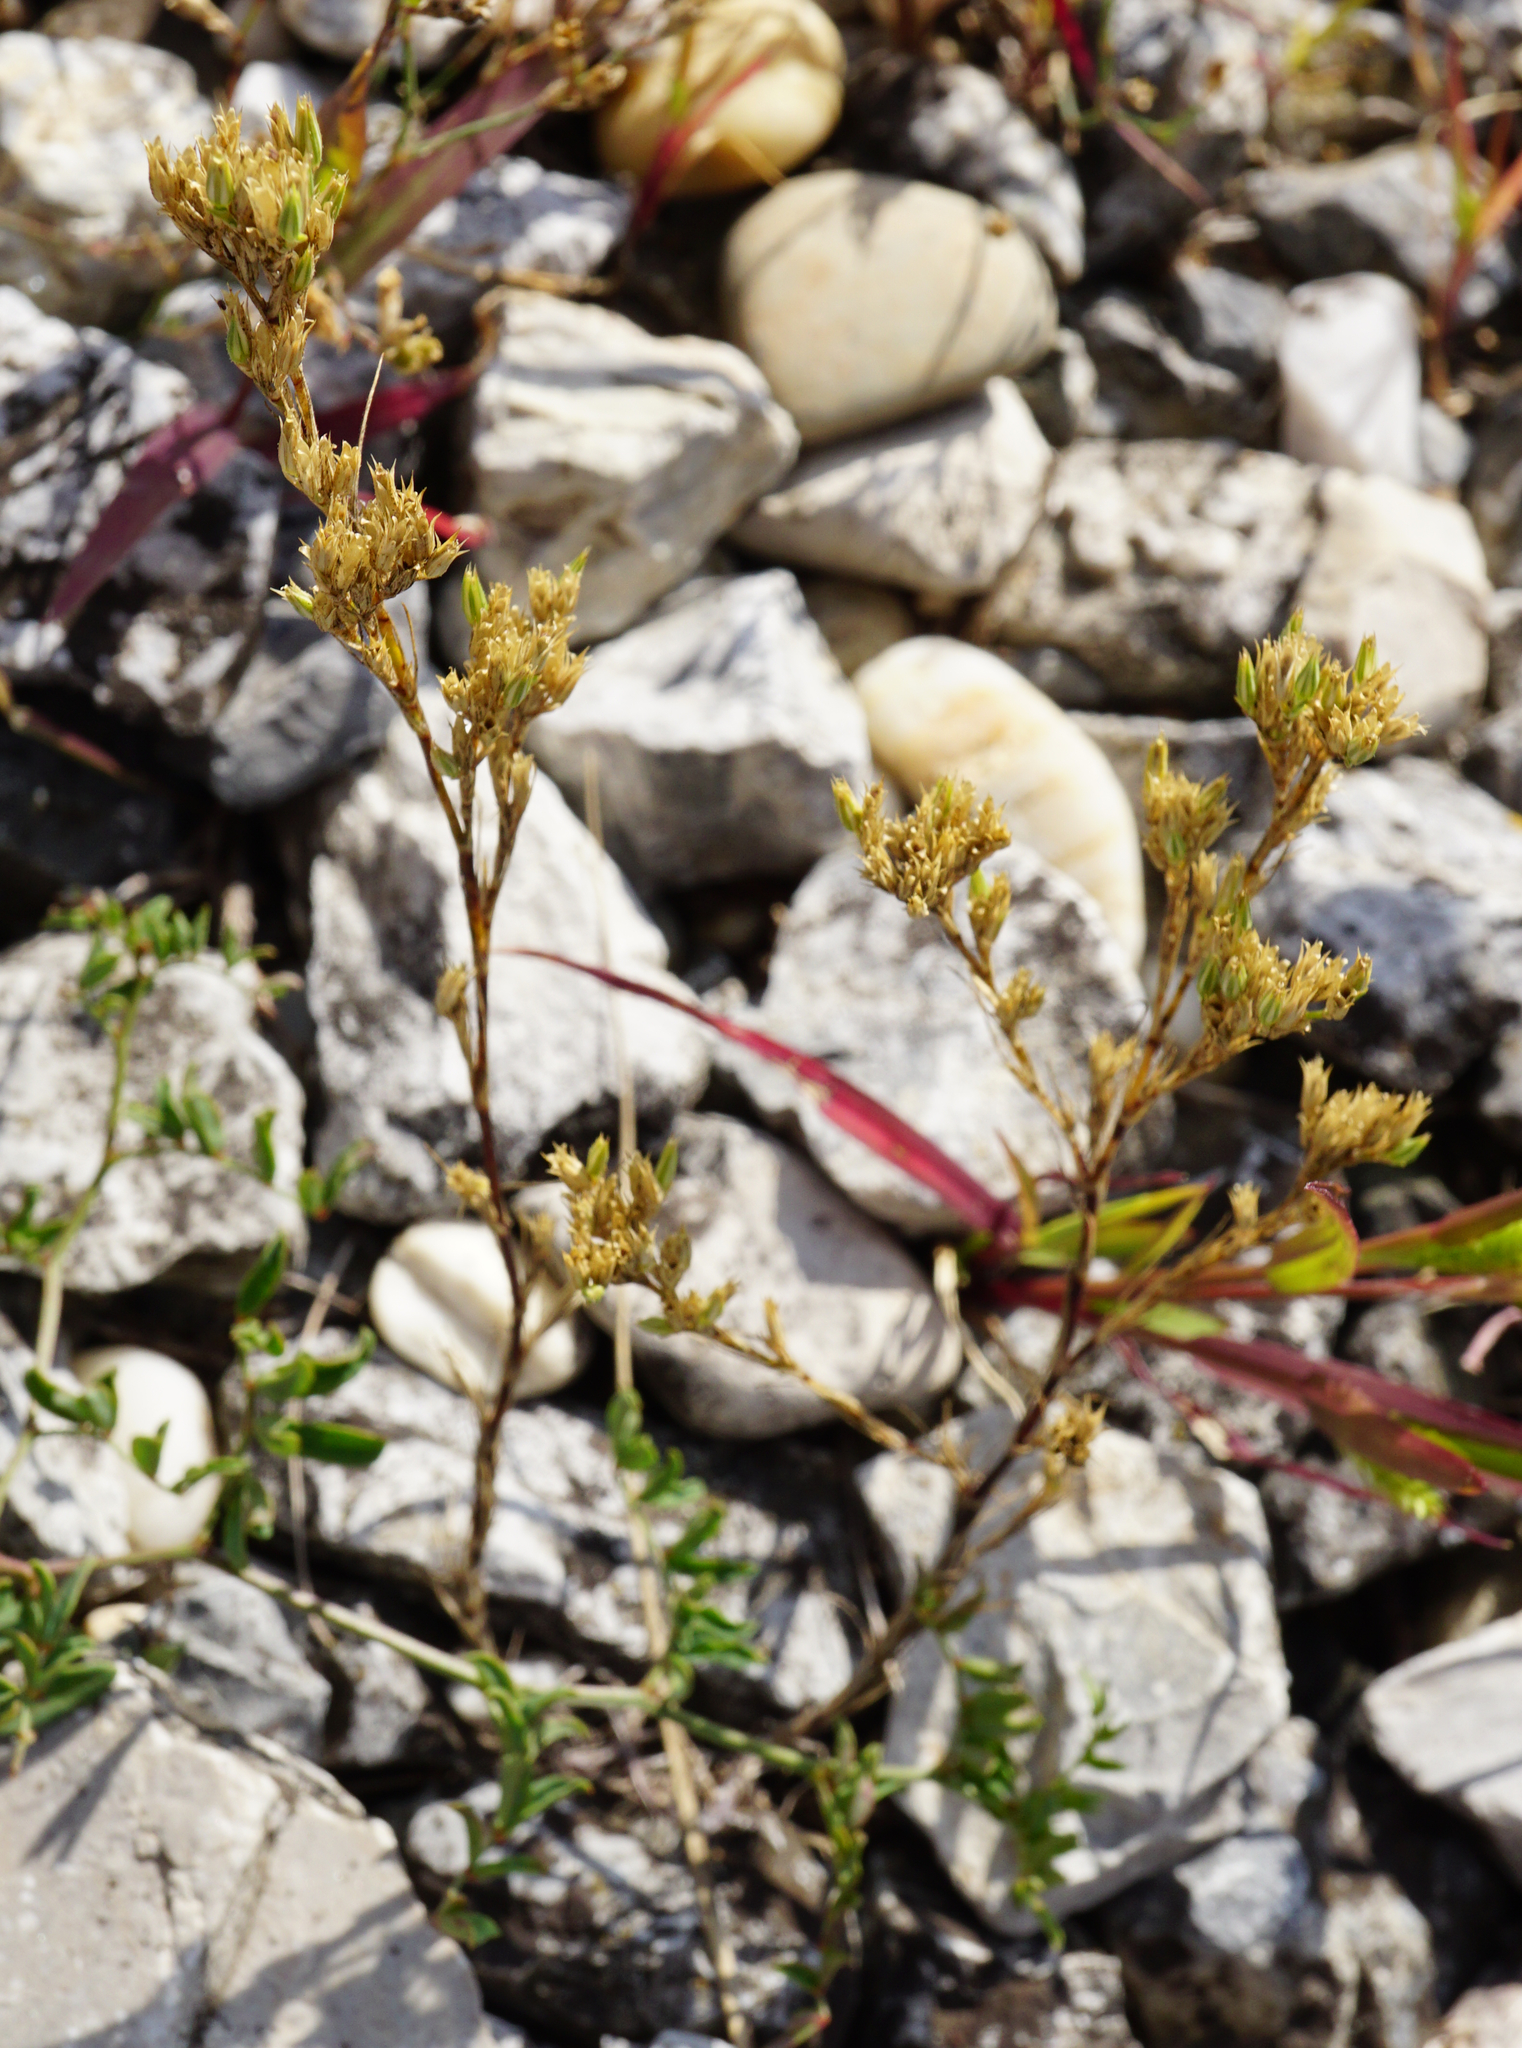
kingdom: Plantae
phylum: Tracheophyta
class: Magnoliopsida
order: Caryophyllales
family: Caryophyllaceae
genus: Minuartia
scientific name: Minuartia mucronata
